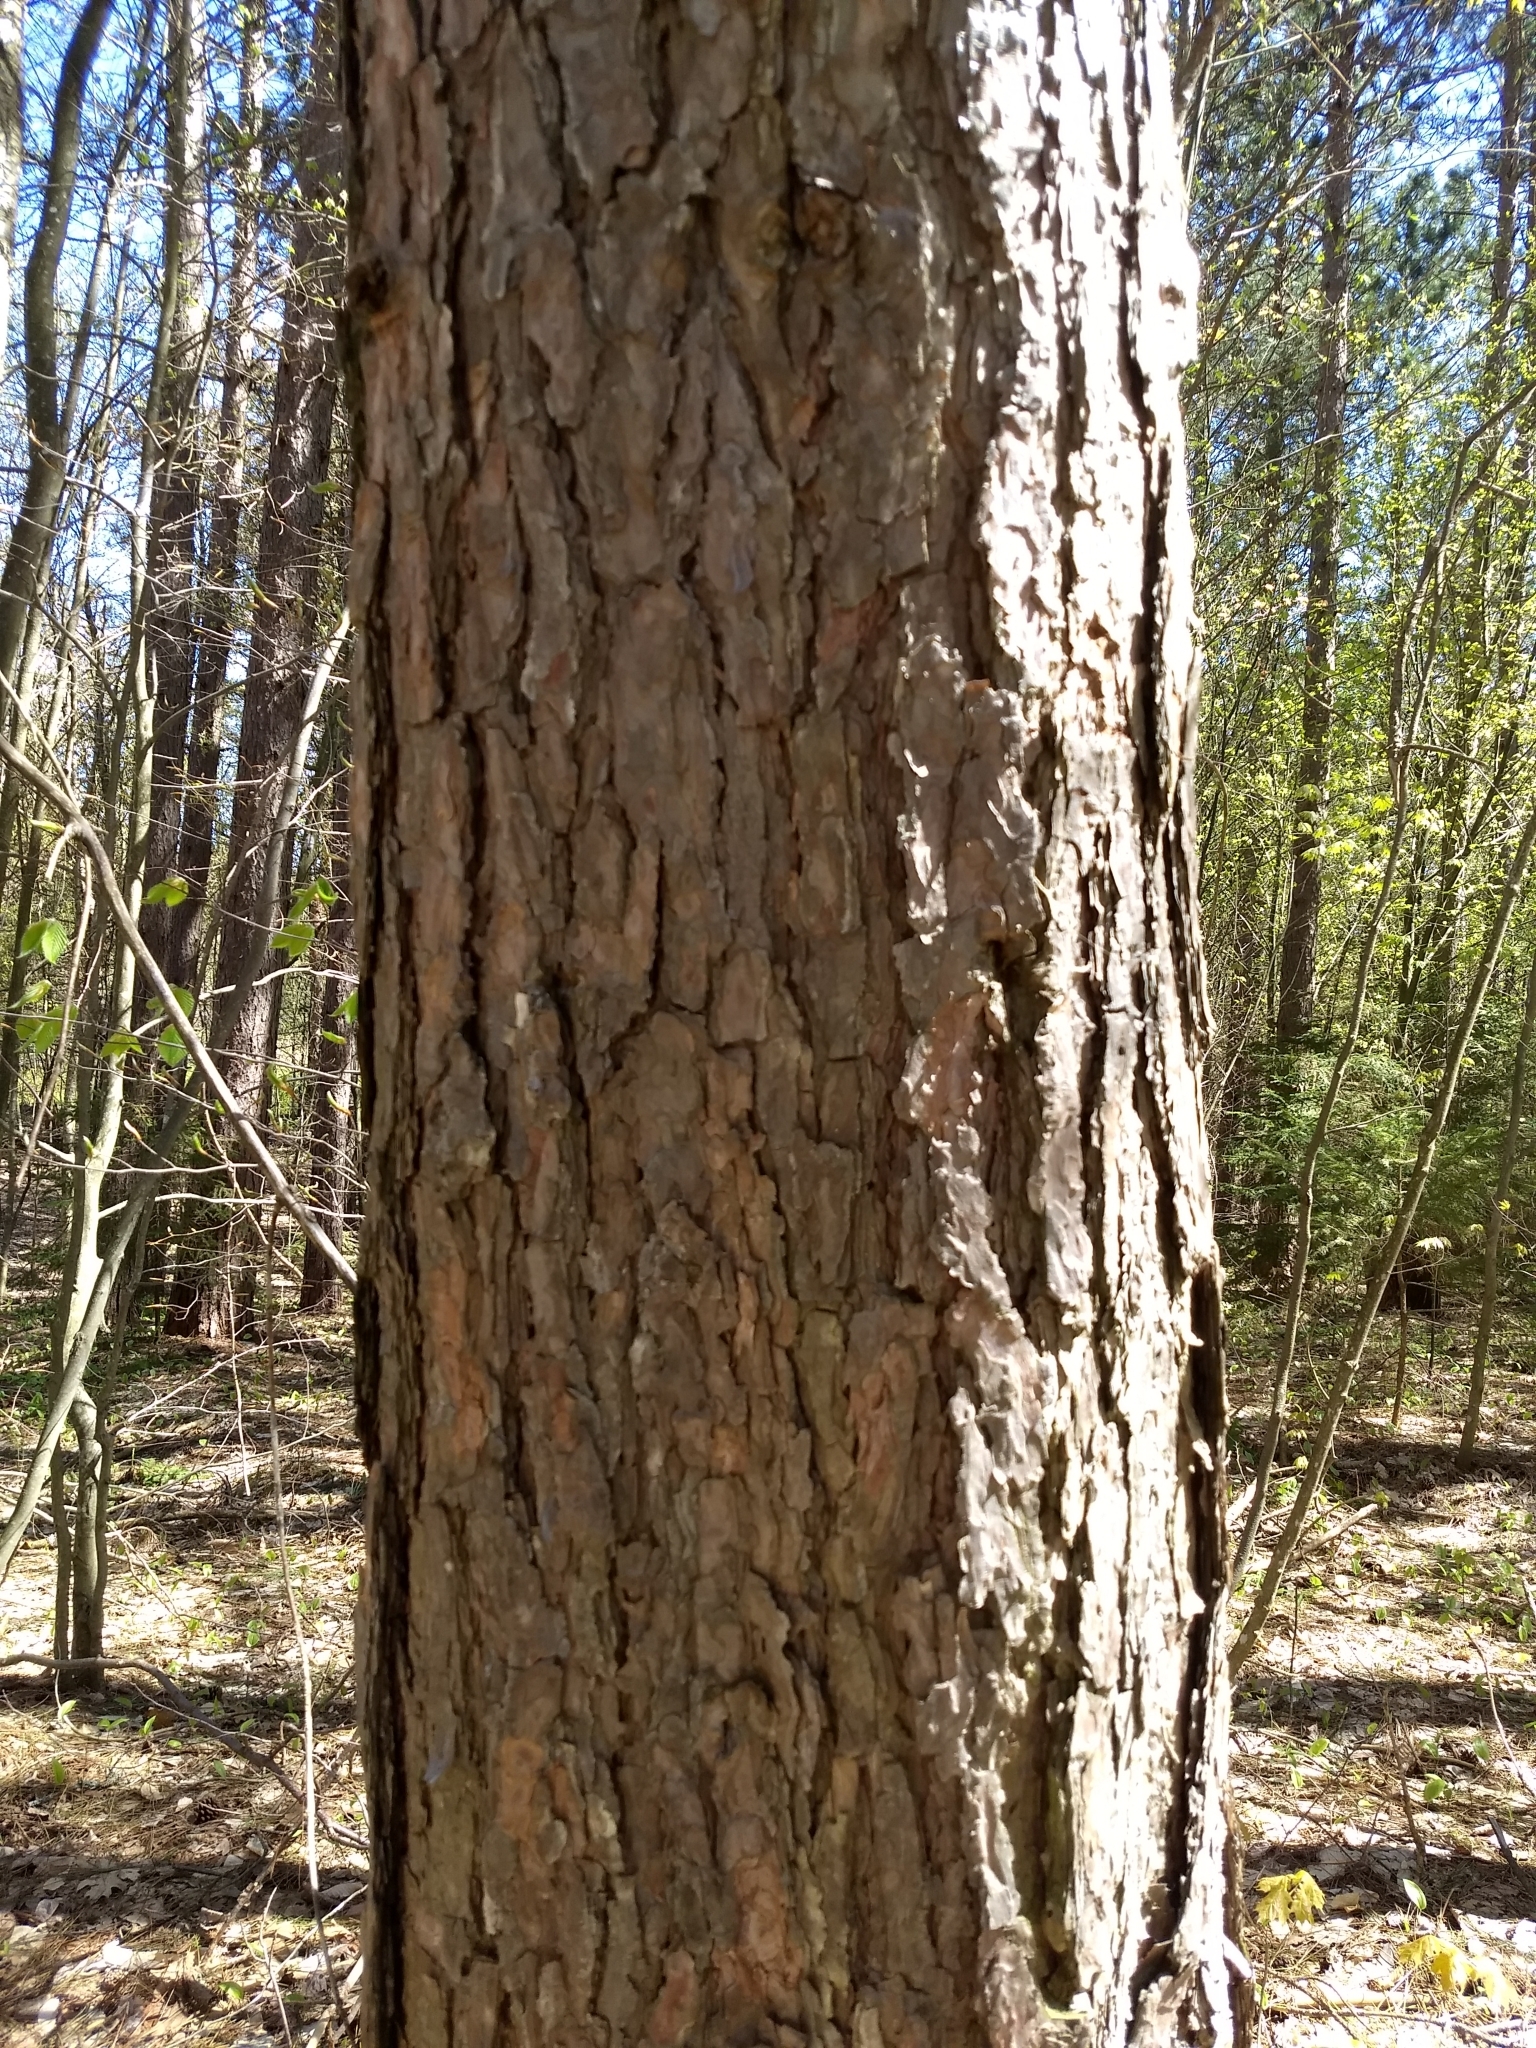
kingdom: Plantae
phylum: Tracheophyta
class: Pinopsida
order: Pinales
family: Pinaceae
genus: Pinus
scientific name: Pinus resinosa
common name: Norway pine
